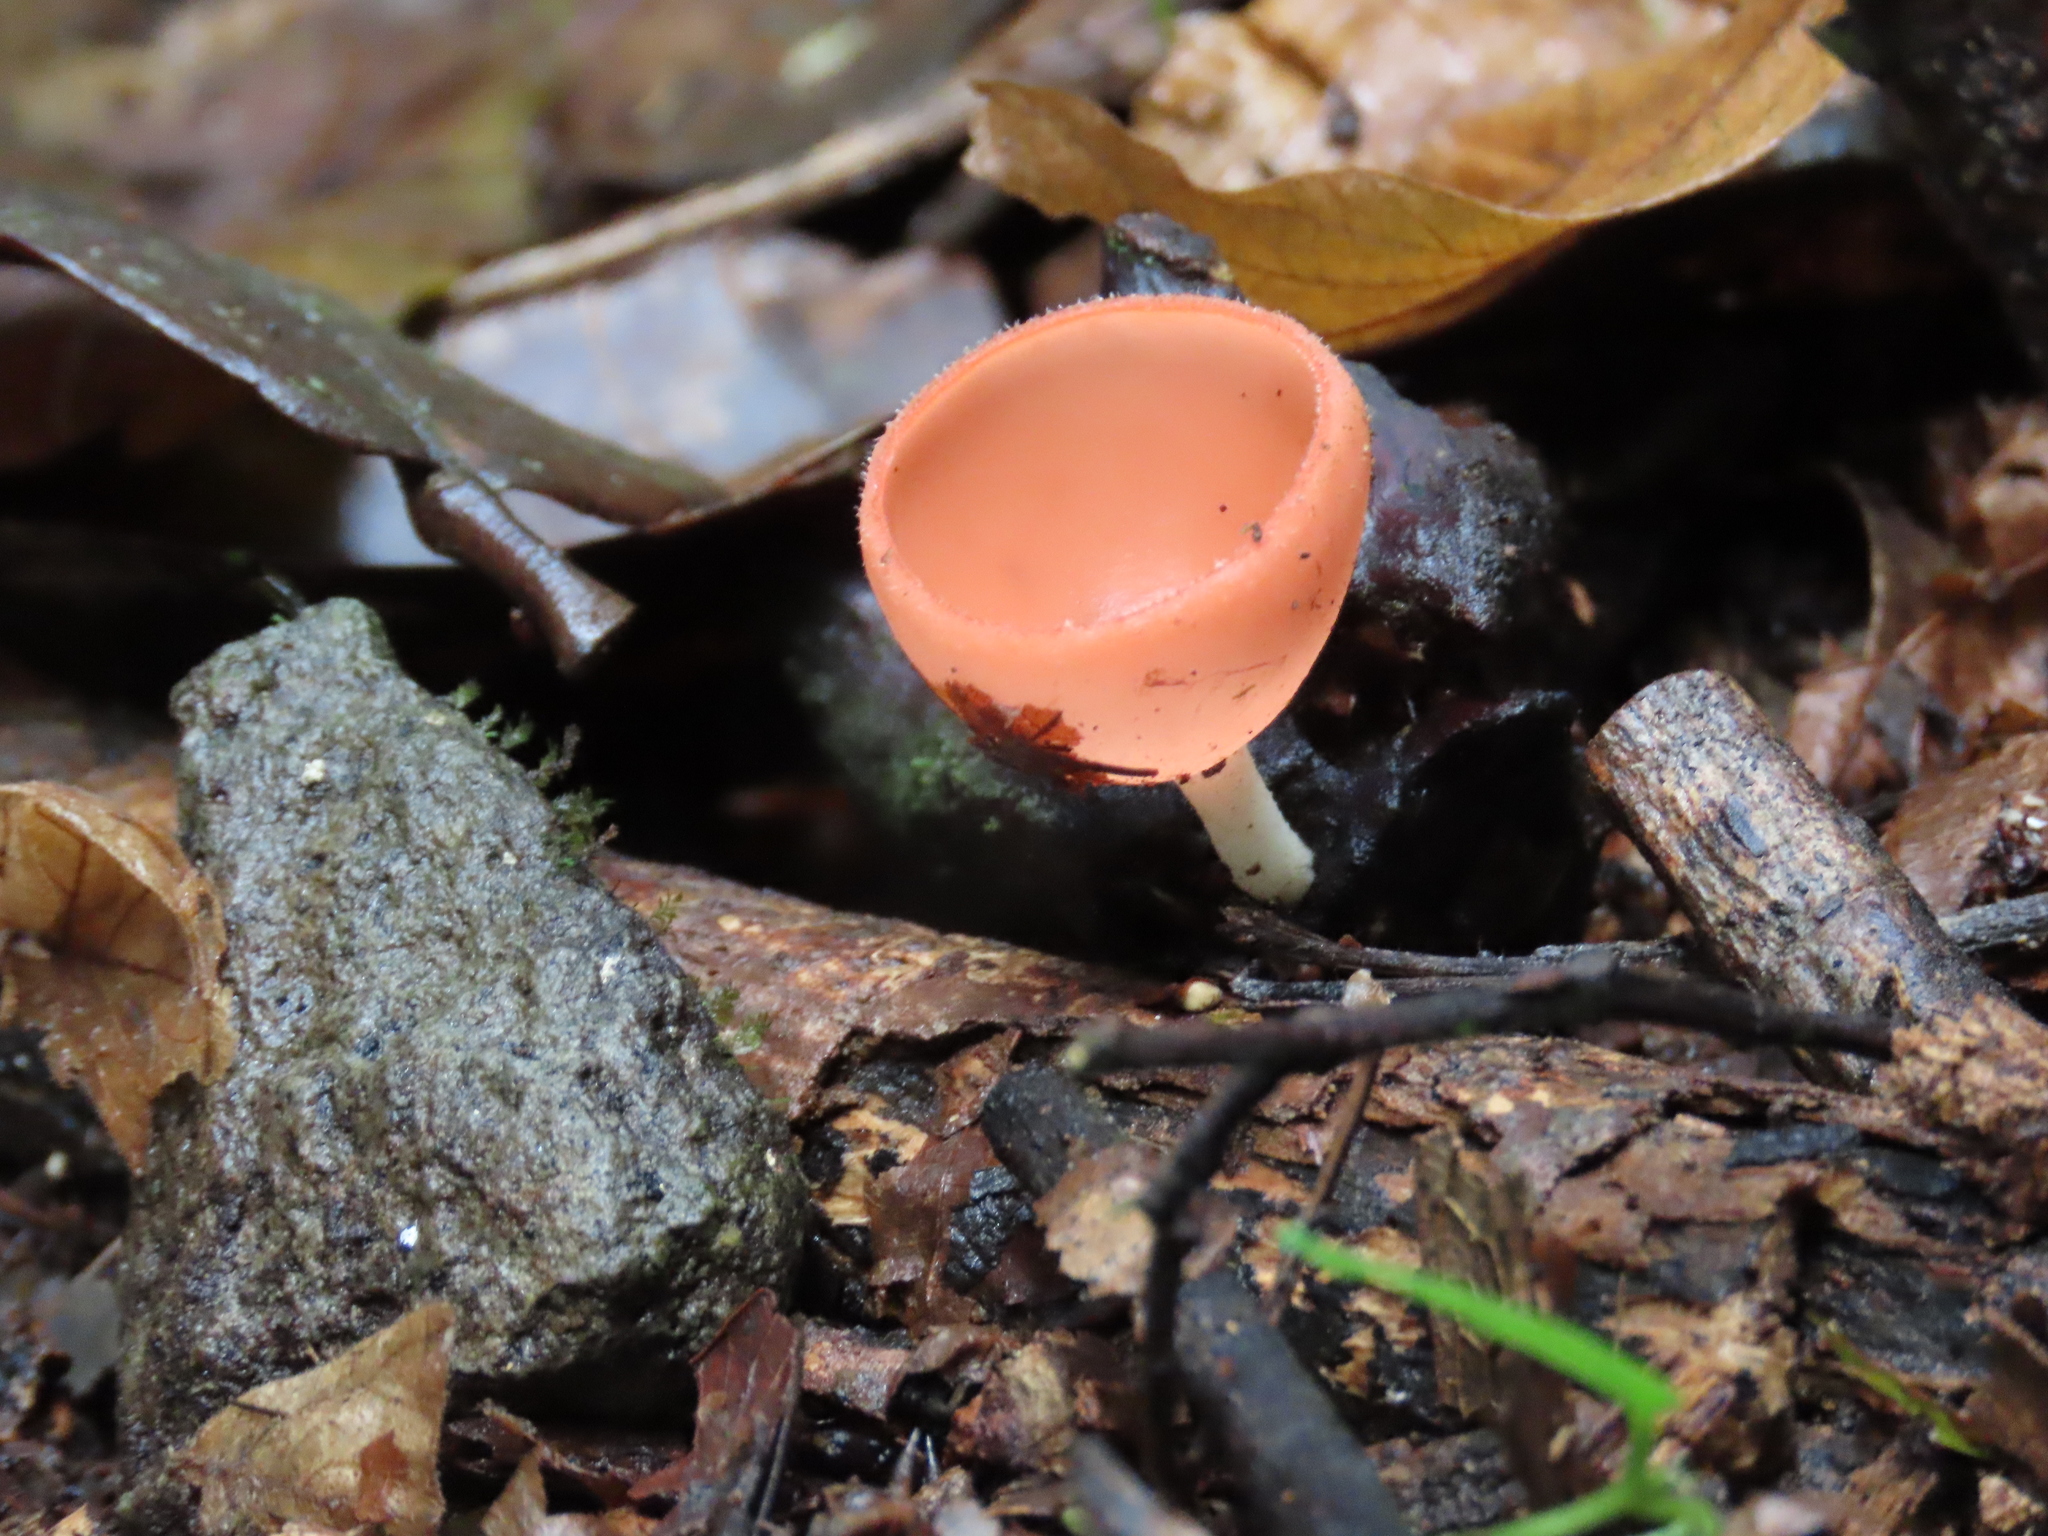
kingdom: Fungi
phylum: Ascomycota
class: Pezizomycetes
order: Pezizales
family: Sarcoscyphaceae
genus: Cookeina
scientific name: Cookeina speciosa
